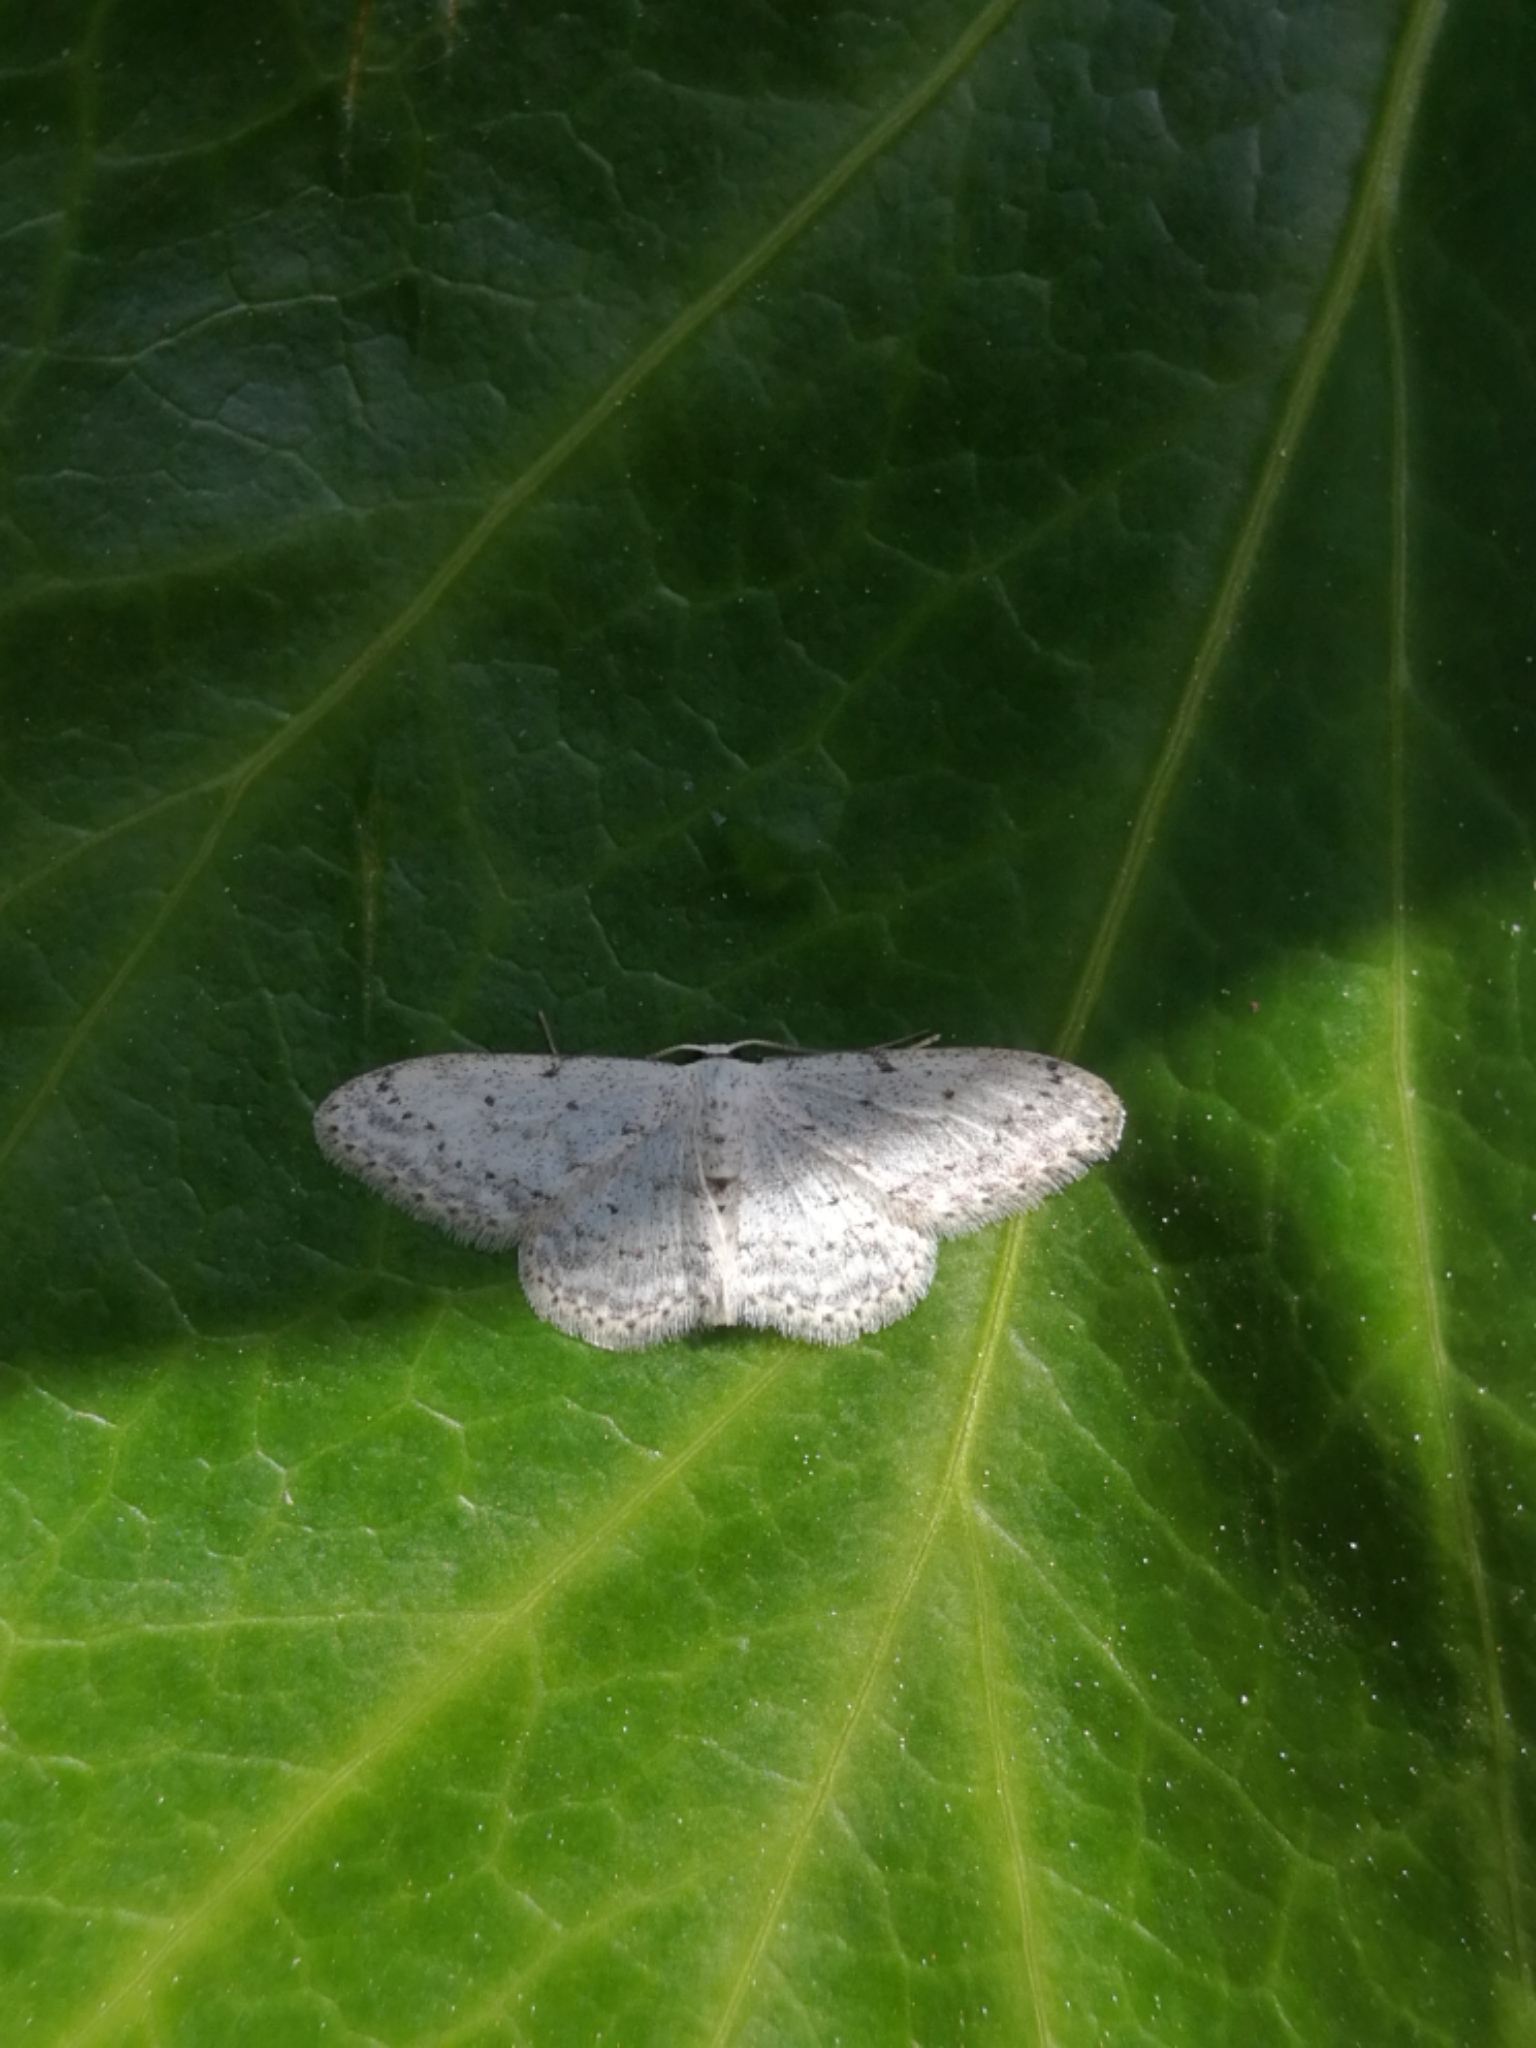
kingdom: Animalia
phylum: Arthropoda
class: Insecta
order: Lepidoptera
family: Geometridae
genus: Idaea
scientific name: Idaea seriata
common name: Small dusty wave
